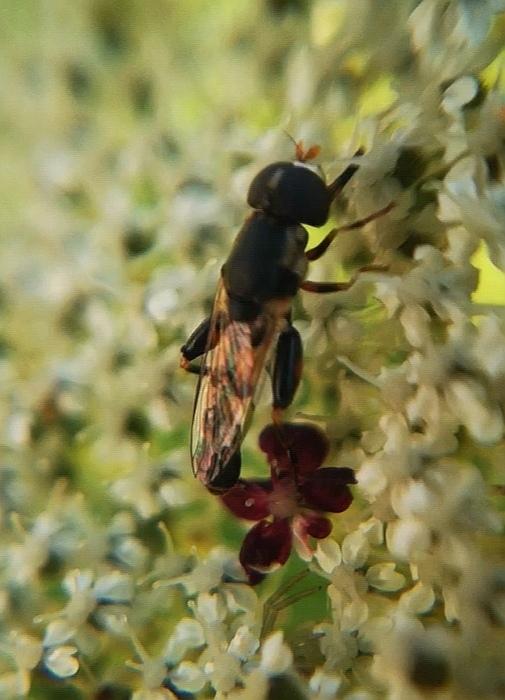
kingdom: Animalia
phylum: Arthropoda
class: Insecta
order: Diptera
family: Syrphidae
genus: Syritta
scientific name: Syritta pipiens
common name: Hover fly
